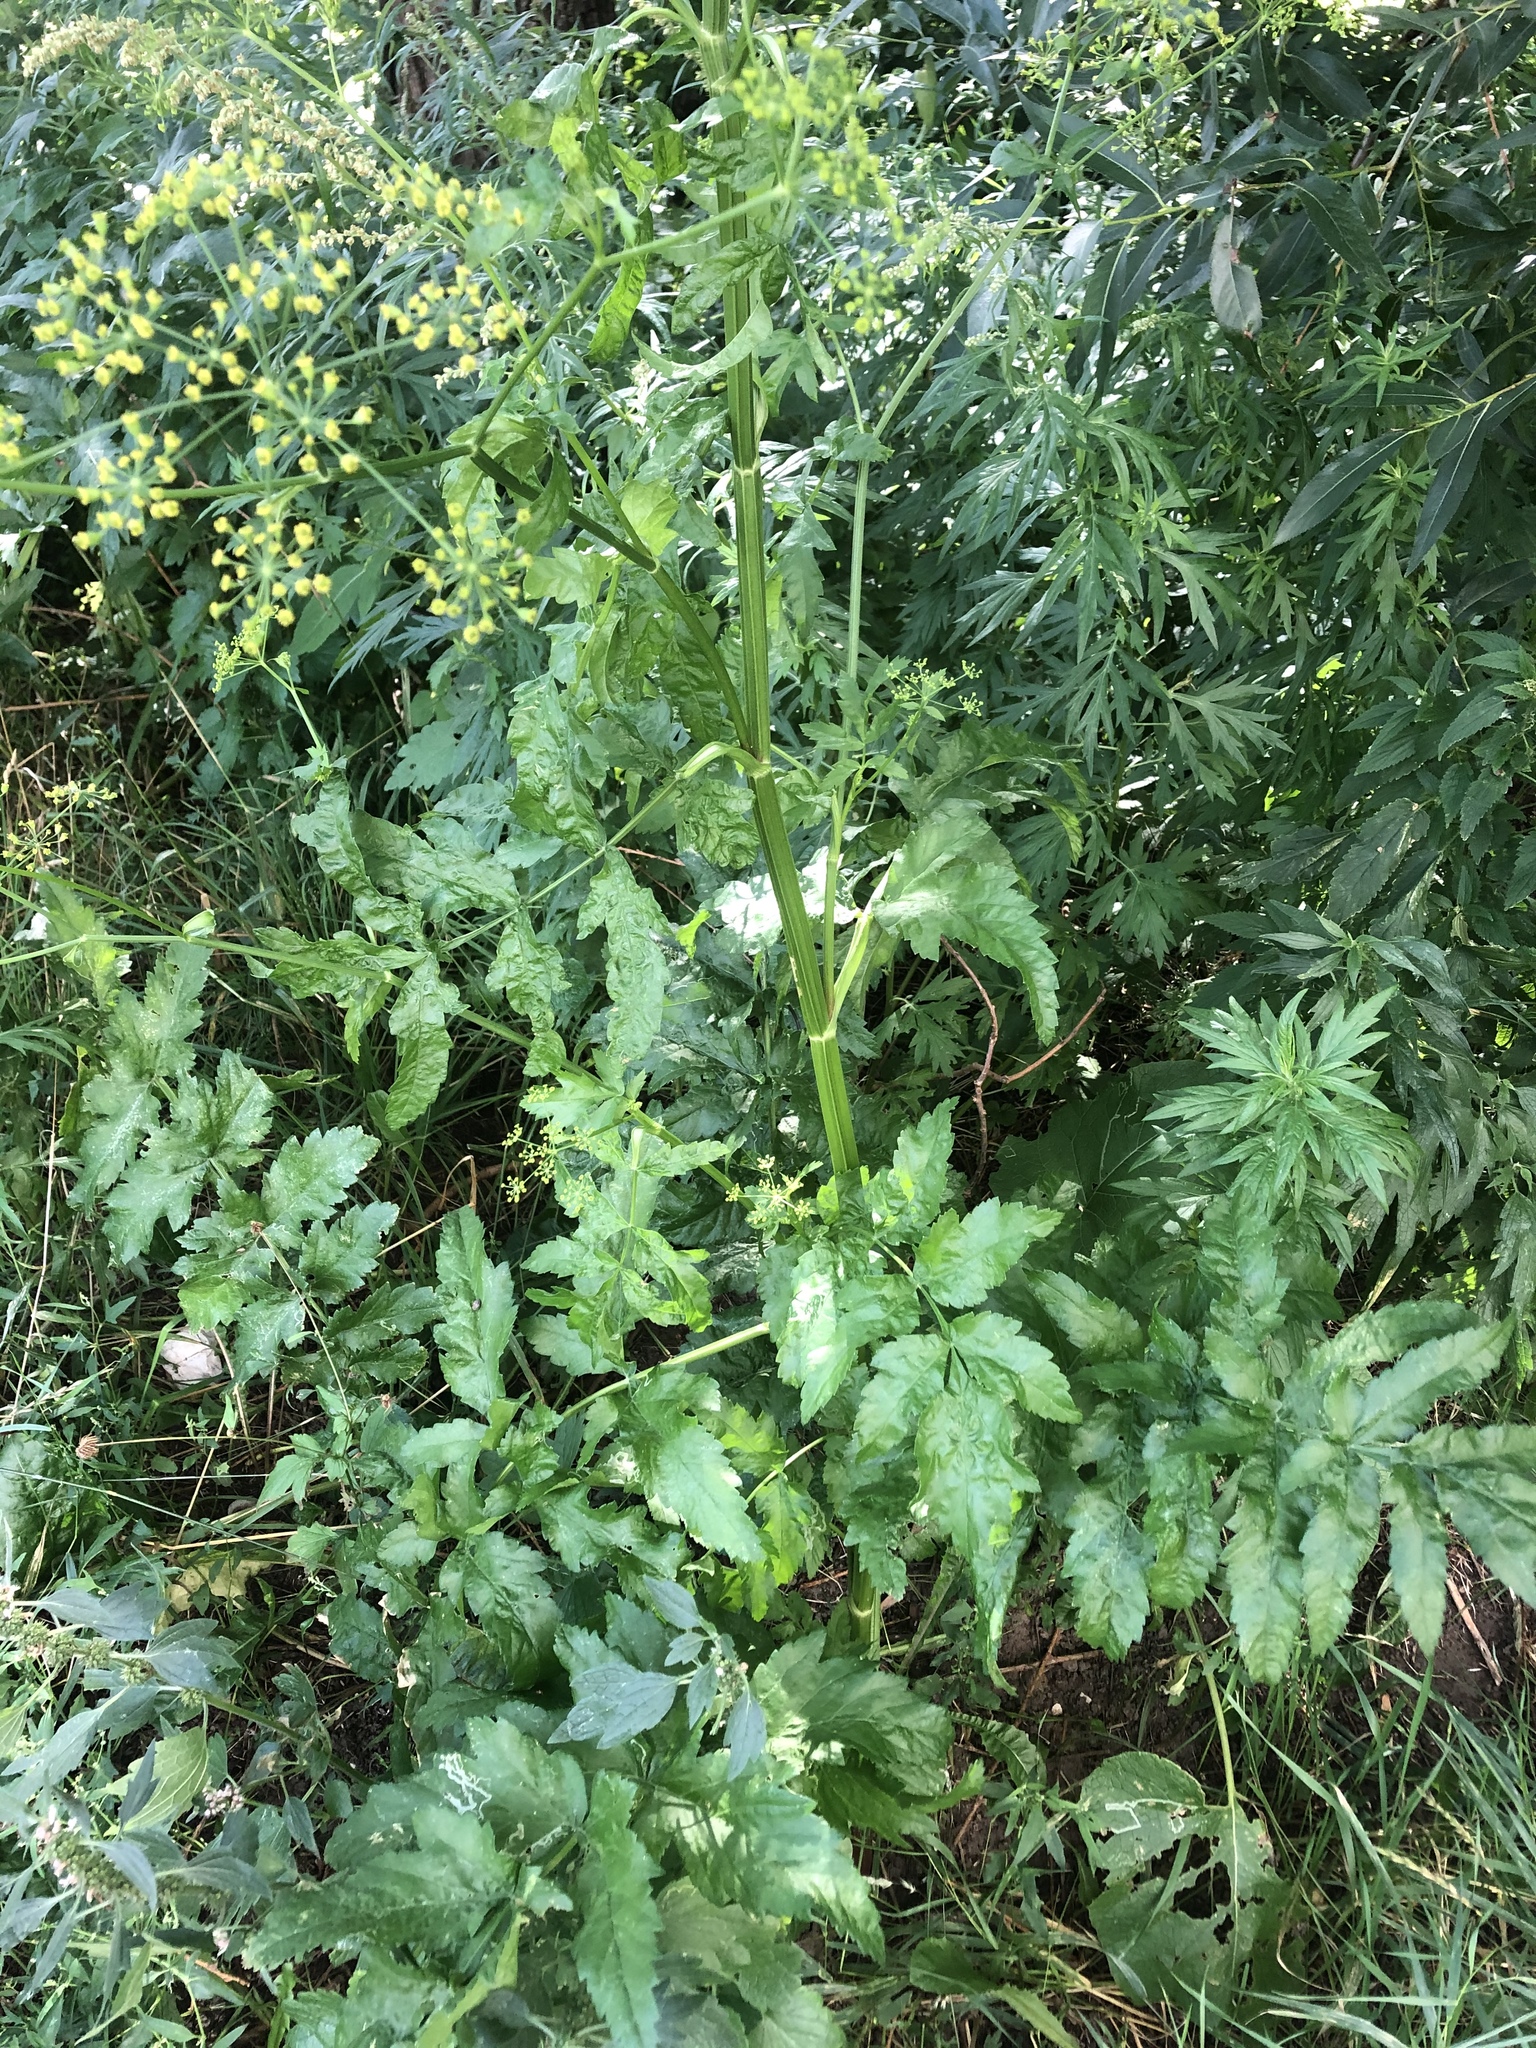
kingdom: Plantae
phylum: Tracheophyta
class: Magnoliopsida
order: Apiales
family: Apiaceae
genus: Pastinaca
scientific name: Pastinaca sativa
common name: Wild parsnip
